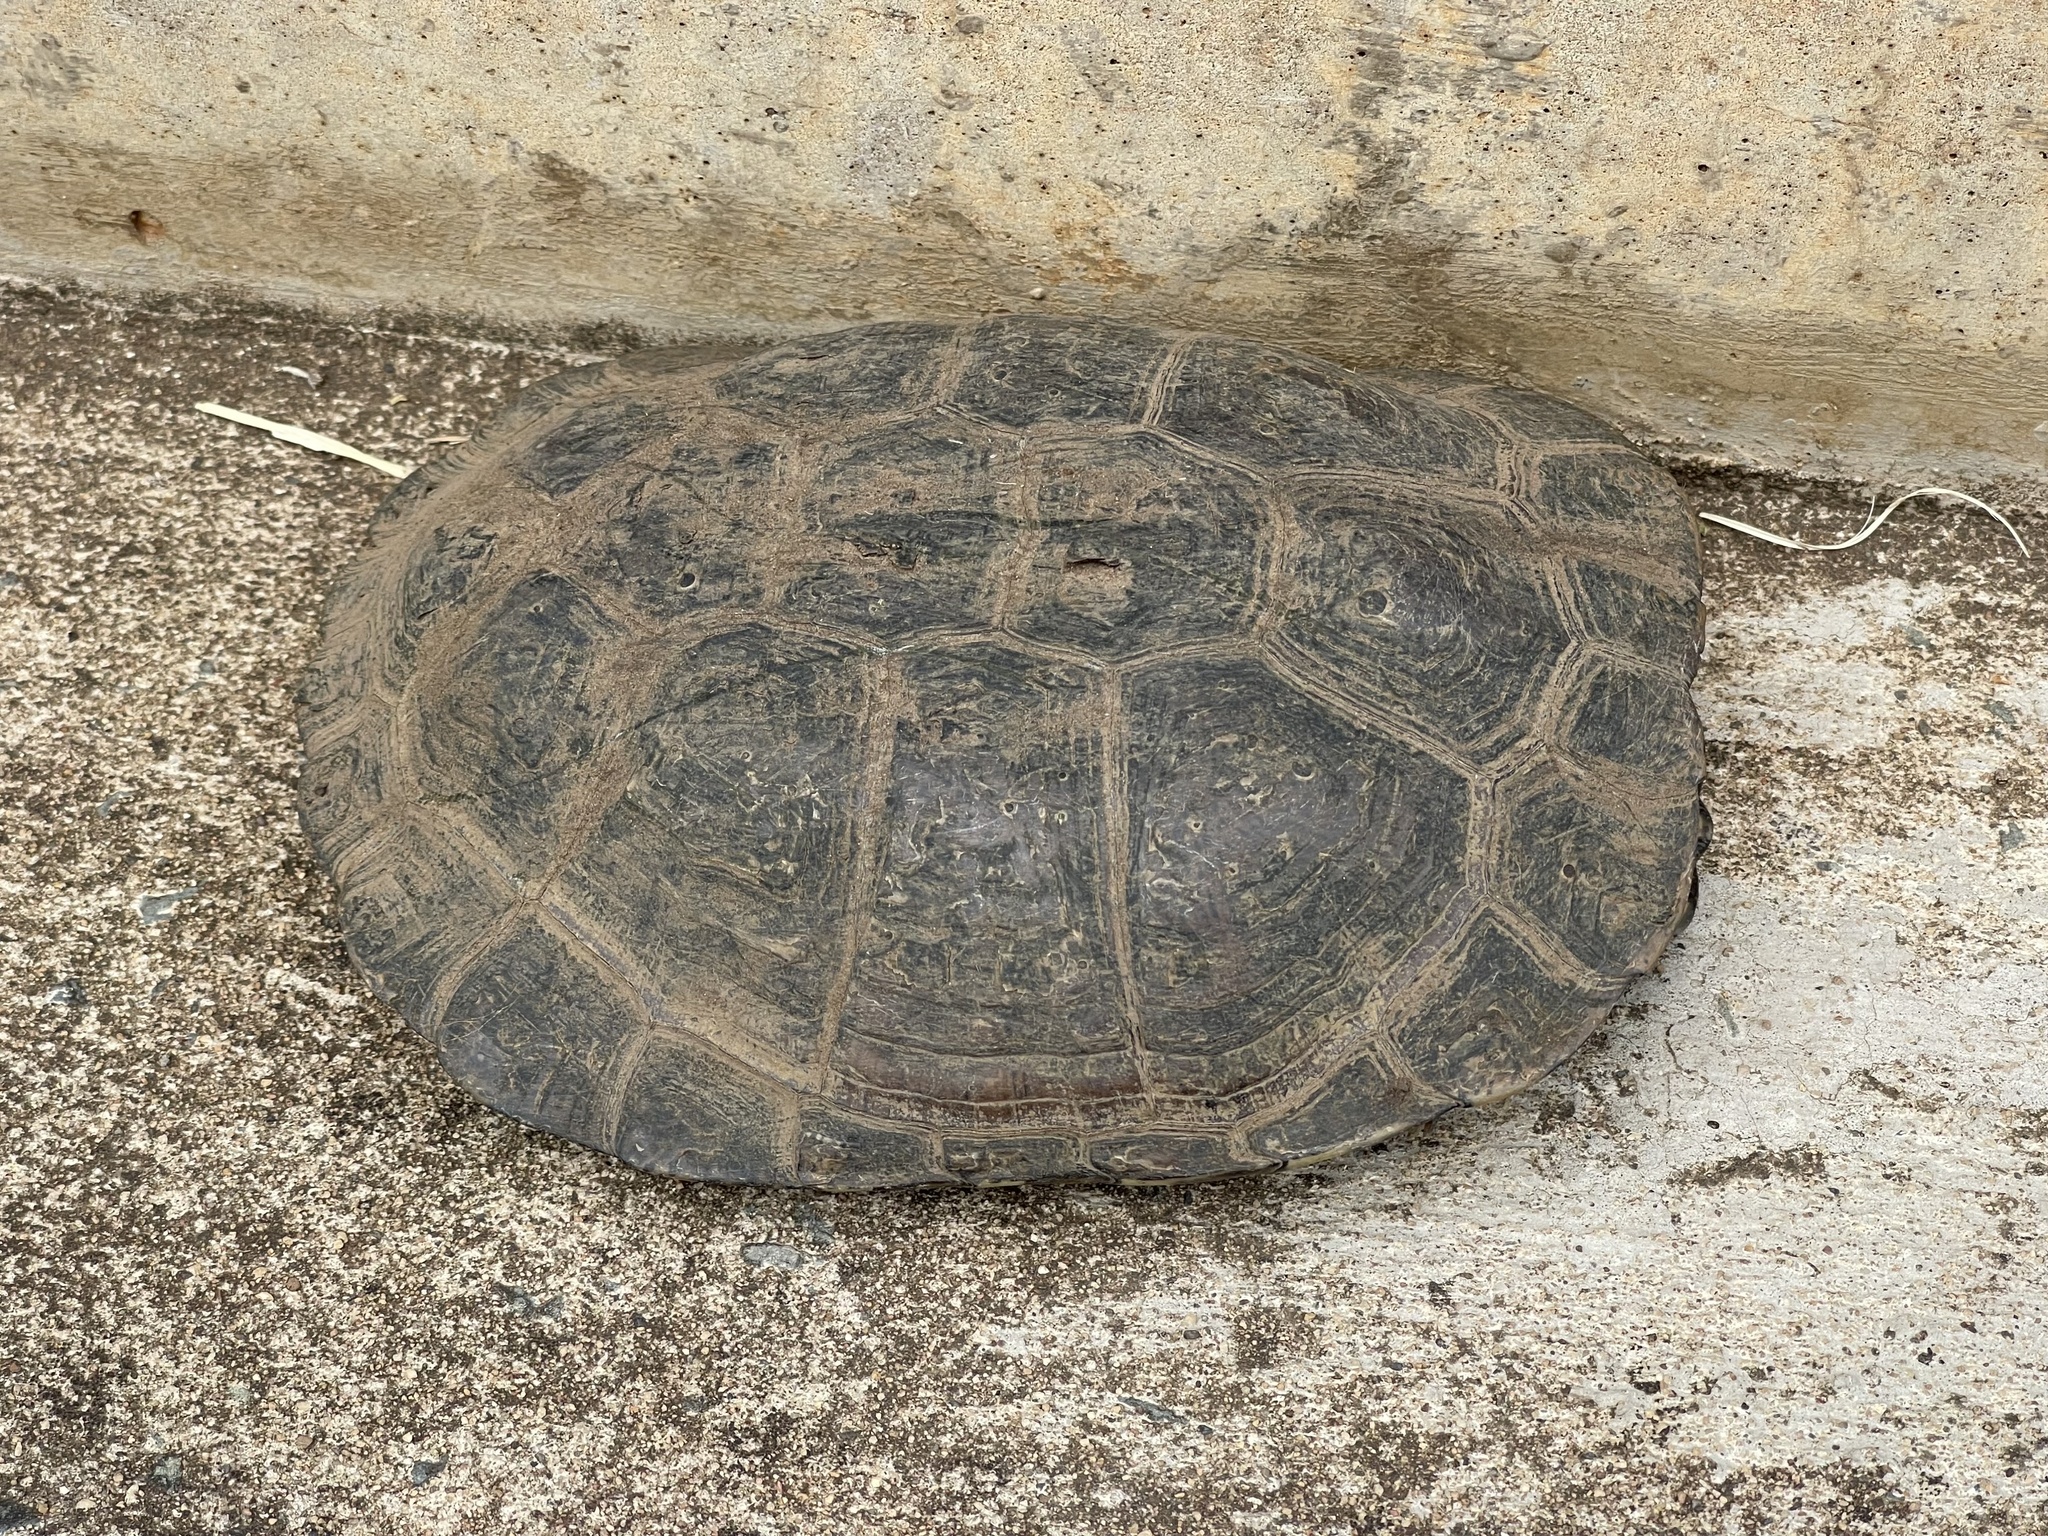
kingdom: Animalia
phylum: Chordata
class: Testudines
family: Pelomedusidae
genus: Pelomedusa
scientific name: Pelomedusa galeata
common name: South african helmeted terrapin
